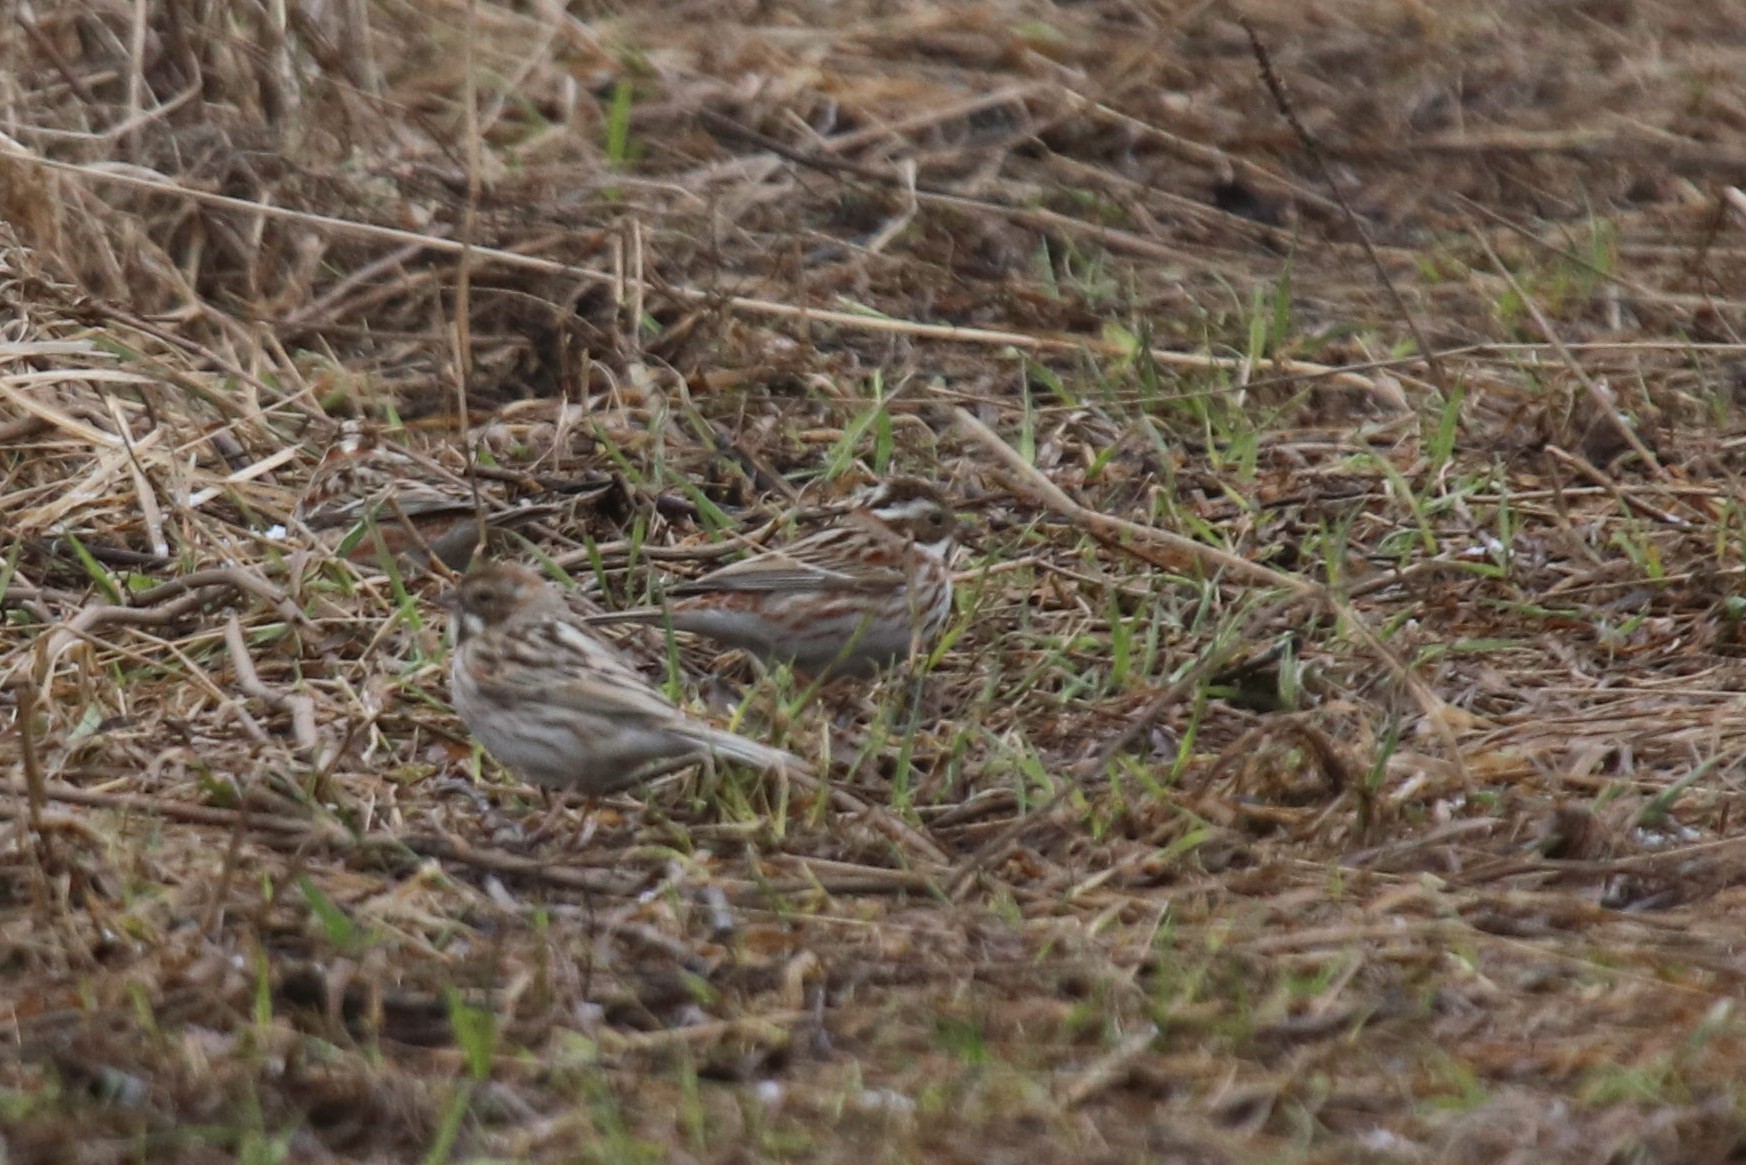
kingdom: Animalia
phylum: Chordata
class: Aves
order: Passeriformes
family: Emberizidae
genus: Emberiza
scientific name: Emberiza rustica
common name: Rustic bunting
